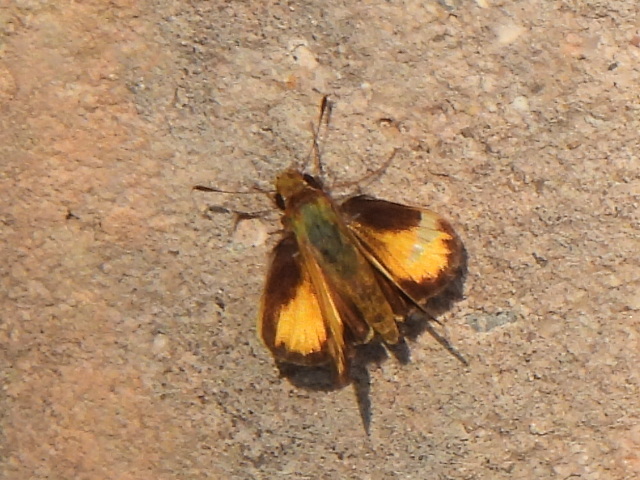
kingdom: Animalia
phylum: Arthropoda
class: Insecta
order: Lepidoptera
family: Hesperiidae
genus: Lon
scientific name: Lon zabulon
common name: Zabulon skipper
